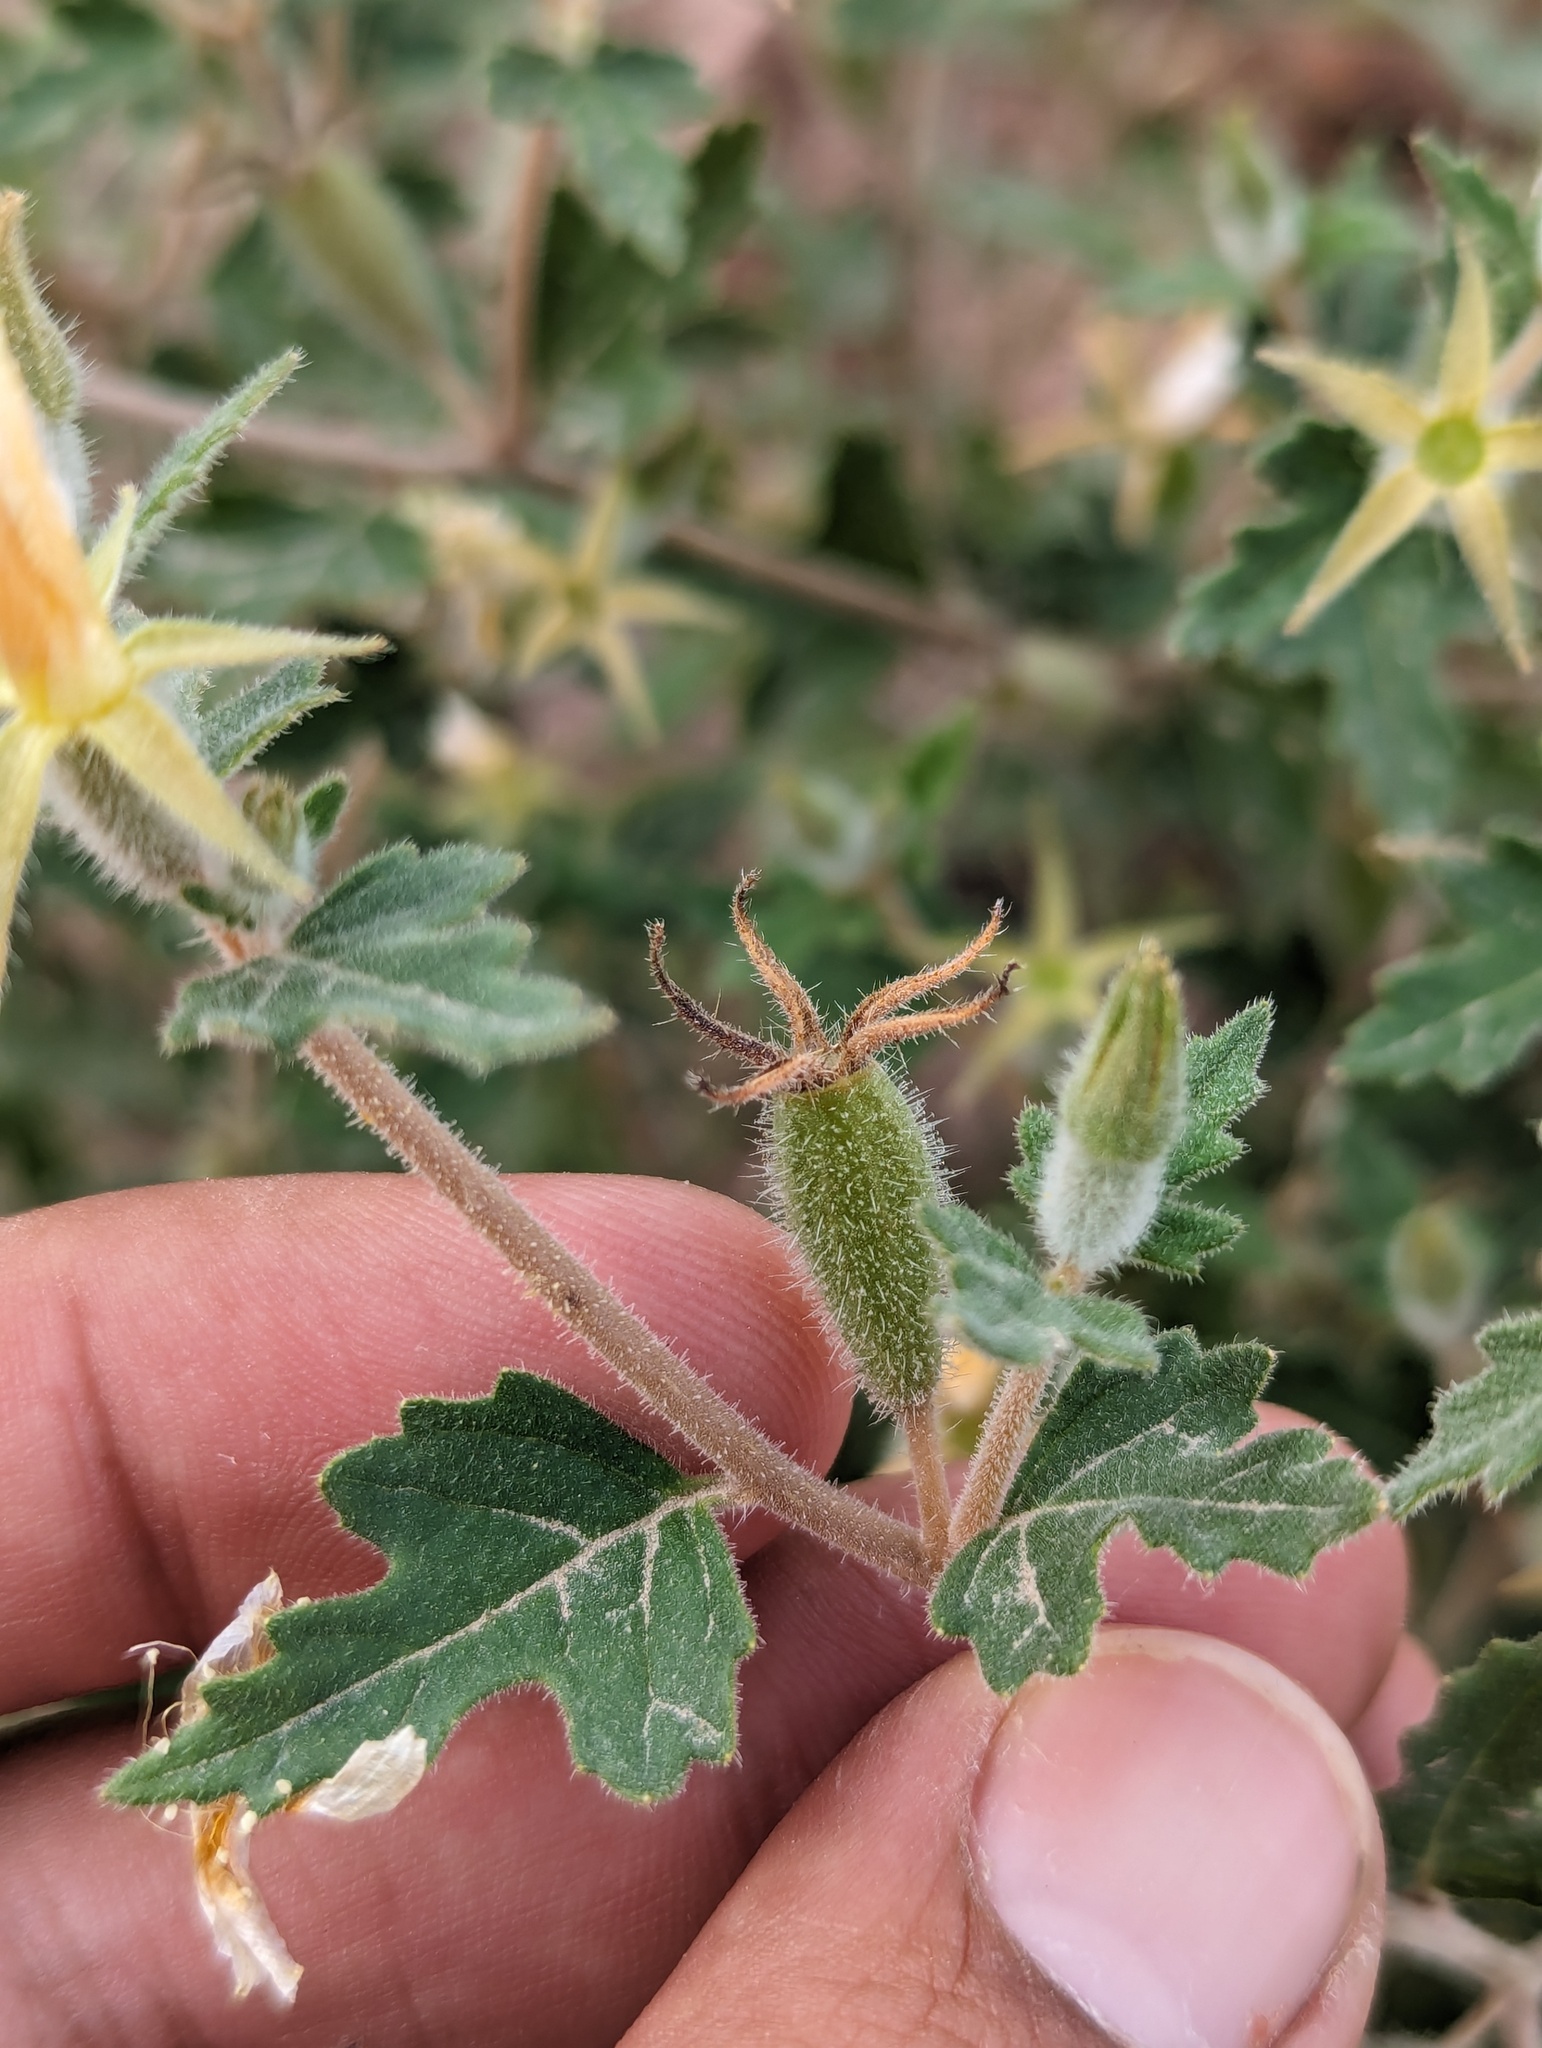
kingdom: Plantae
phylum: Tracheophyta
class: Magnoliopsida
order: Cornales
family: Loasaceae
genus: Mentzelia
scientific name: Mentzelia adhaerens
